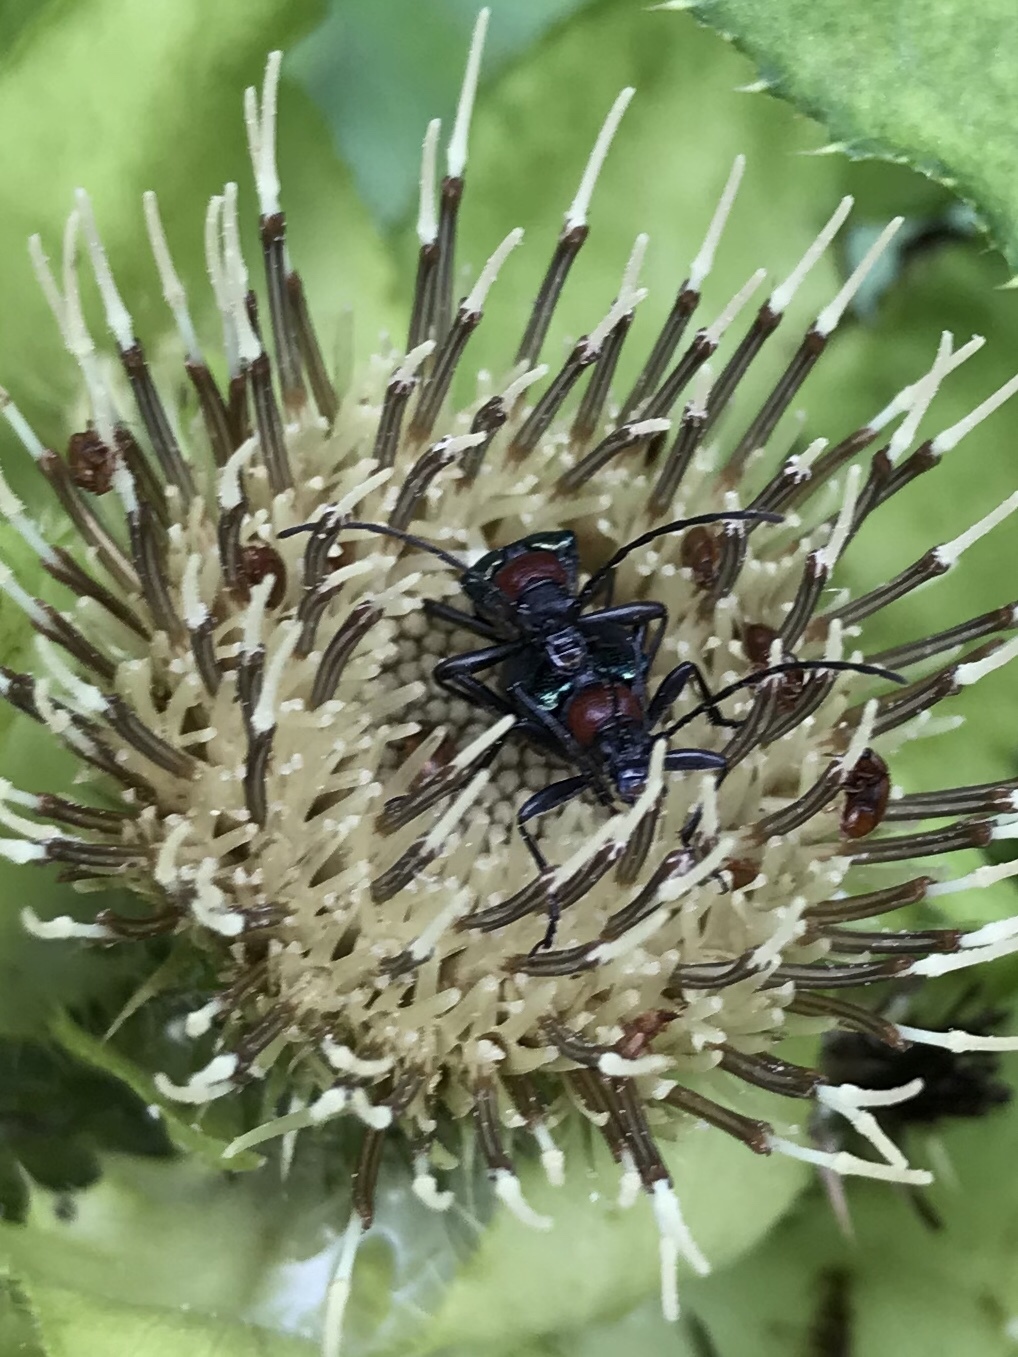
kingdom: Animalia
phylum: Arthropoda
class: Insecta
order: Coleoptera
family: Cerambycidae
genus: Gaurotes
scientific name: Gaurotes virginea
